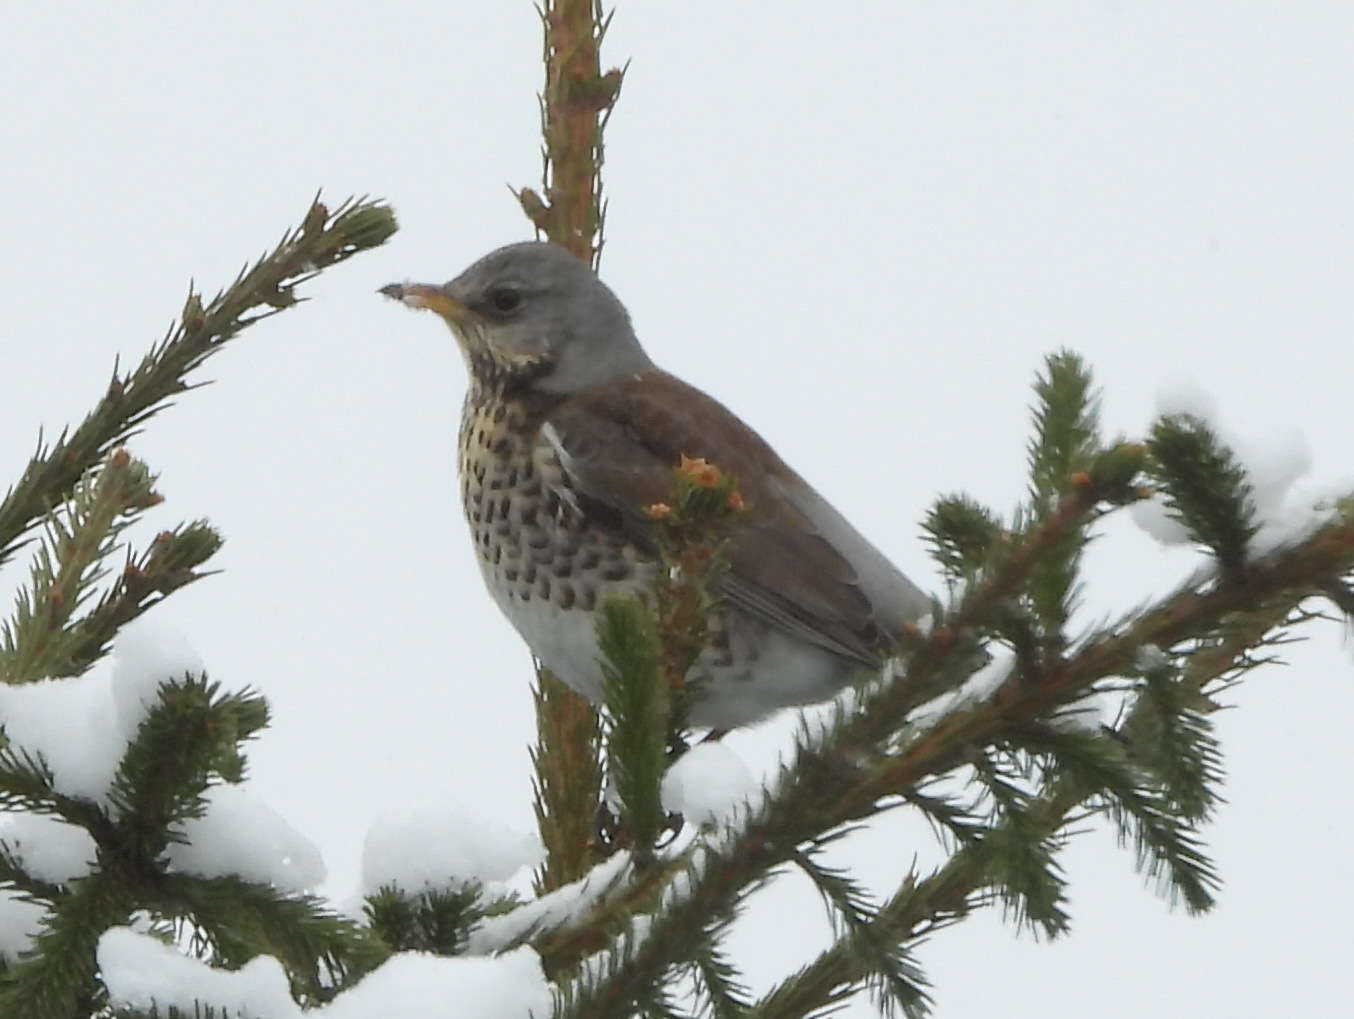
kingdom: Animalia
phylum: Chordata
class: Aves
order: Passeriformes
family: Turdidae
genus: Turdus
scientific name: Turdus pilaris
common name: Fieldfare
